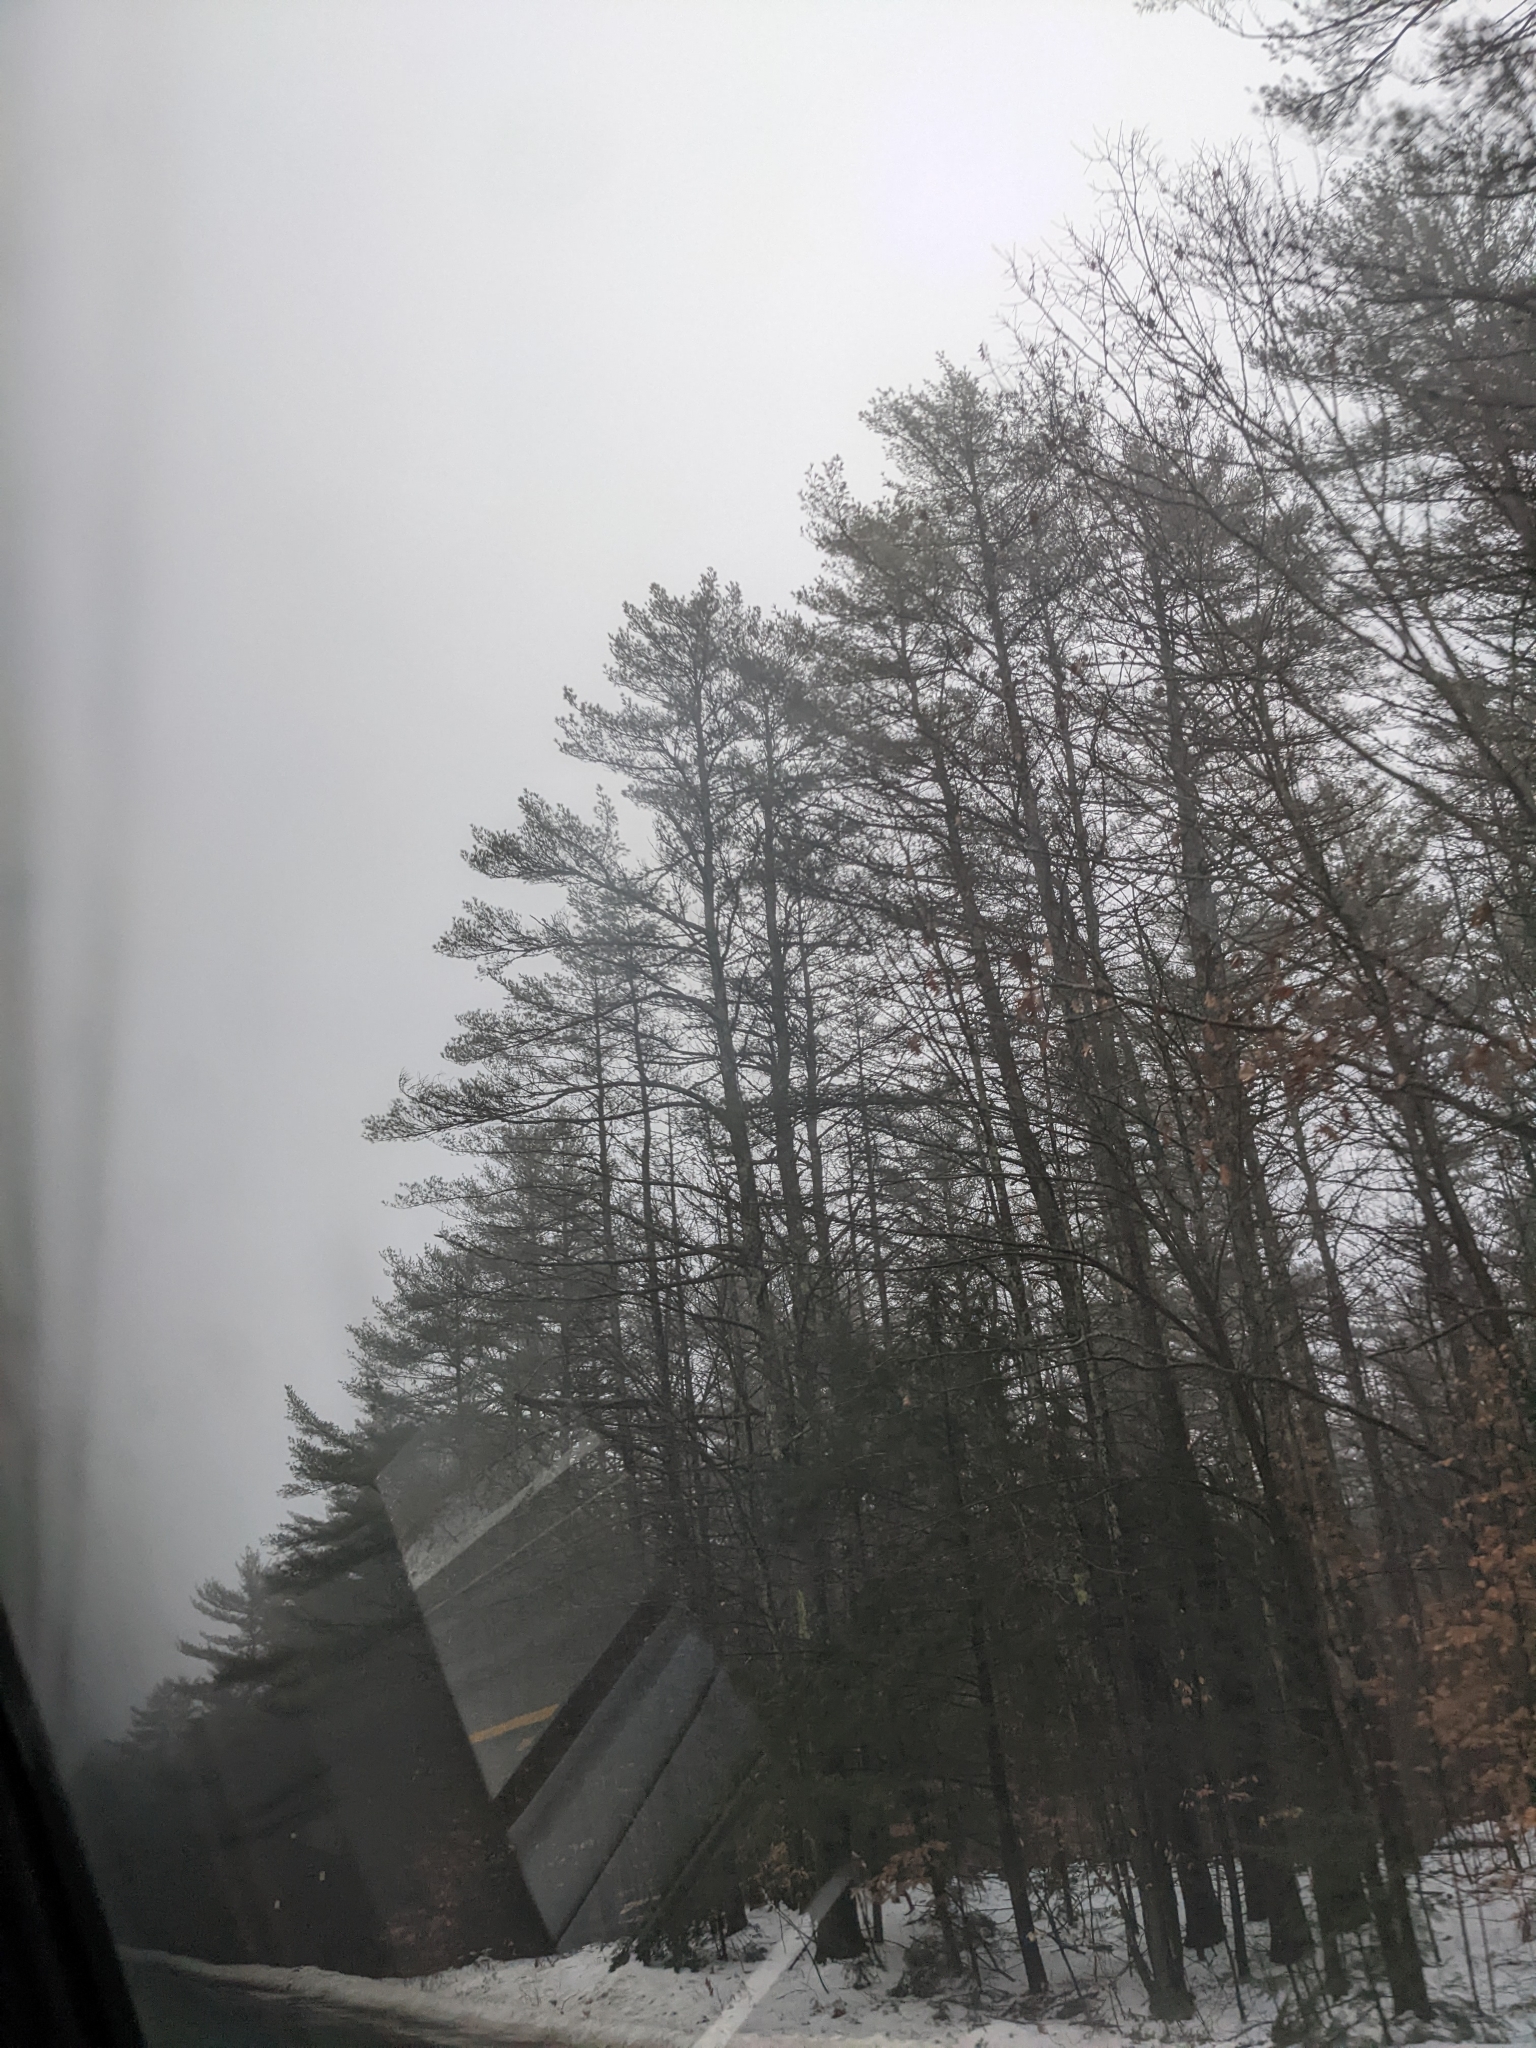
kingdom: Plantae
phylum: Tracheophyta
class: Pinopsida
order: Pinales
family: Pinaceae
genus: Pinus
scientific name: Pinus strobus
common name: Weymouth pine
